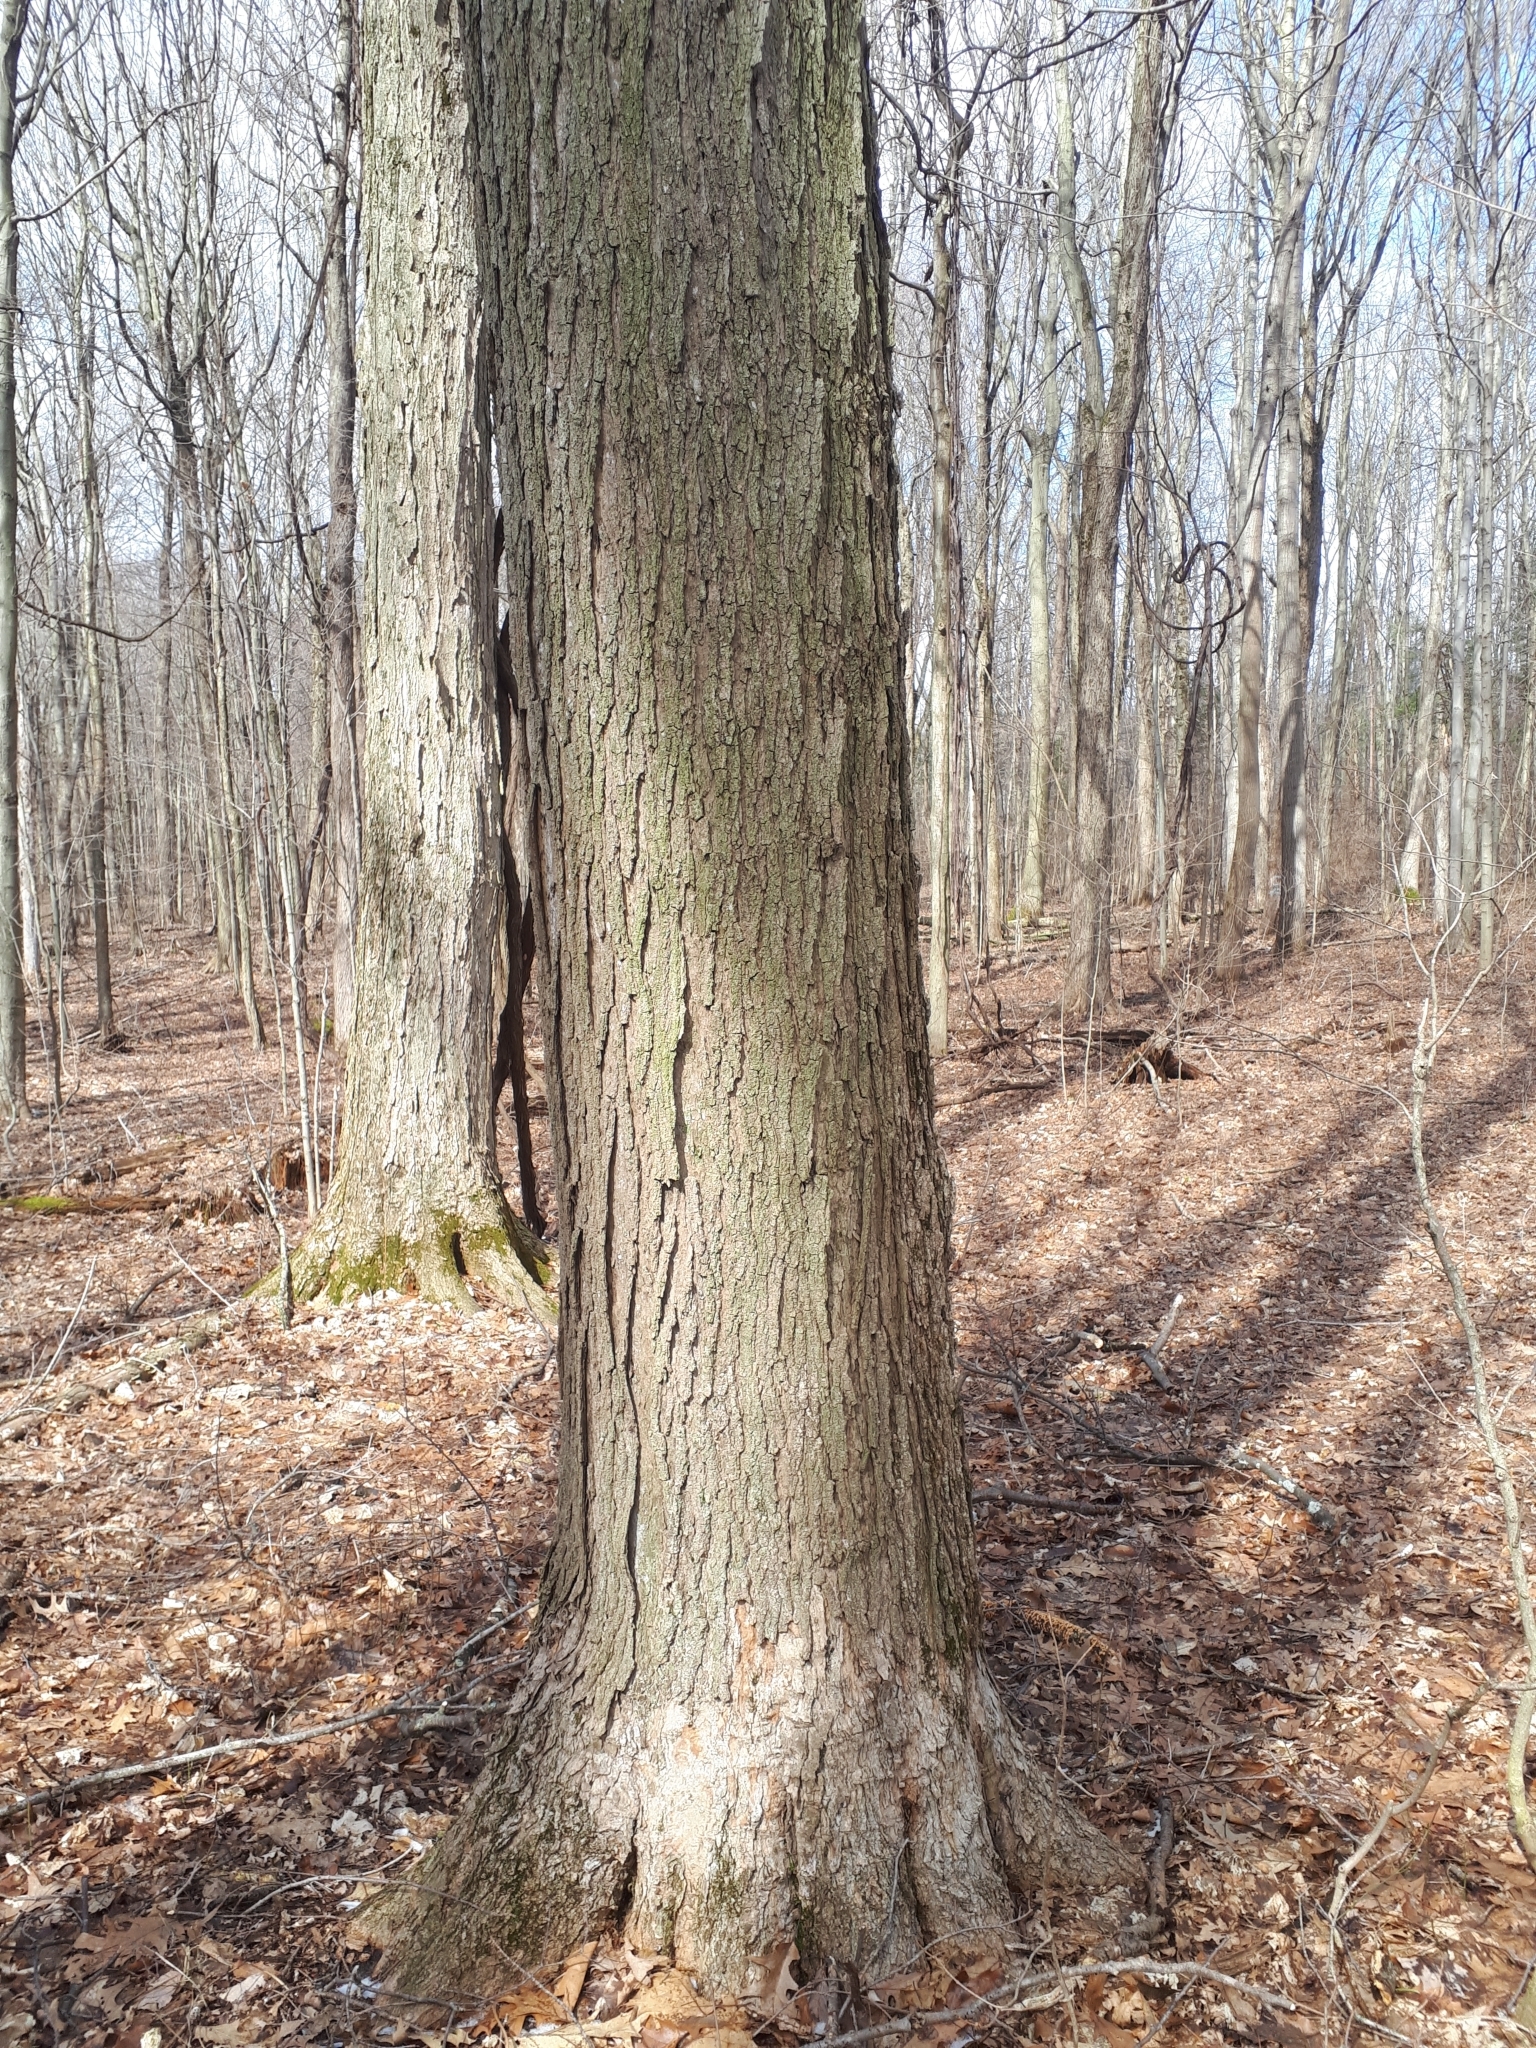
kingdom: Plantae
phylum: Tracheophyta
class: Magnoliopsida
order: Sapindales
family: Sapindaceae
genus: Acer
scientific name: Acer saccharum
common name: Sugar maple
